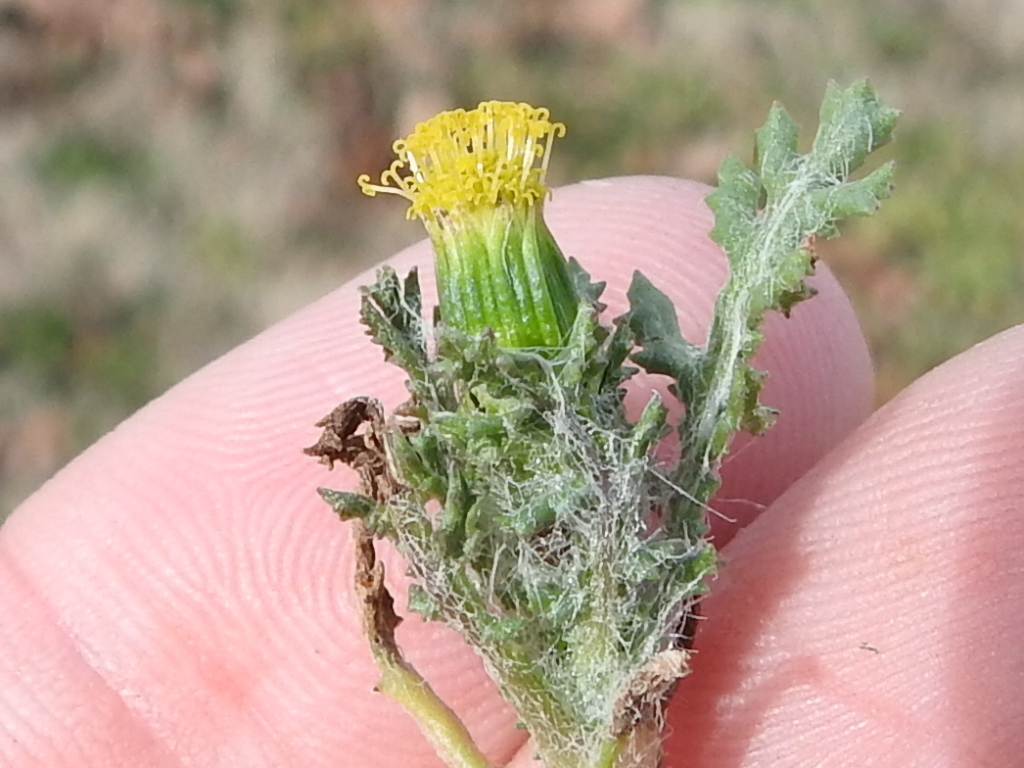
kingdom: Plantae
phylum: Tracheophyta
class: Magnoliopsida
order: Asterales
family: Asteraceae
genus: Senecio
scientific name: Senecio vulgaris
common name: Old-man-in-the-spring
